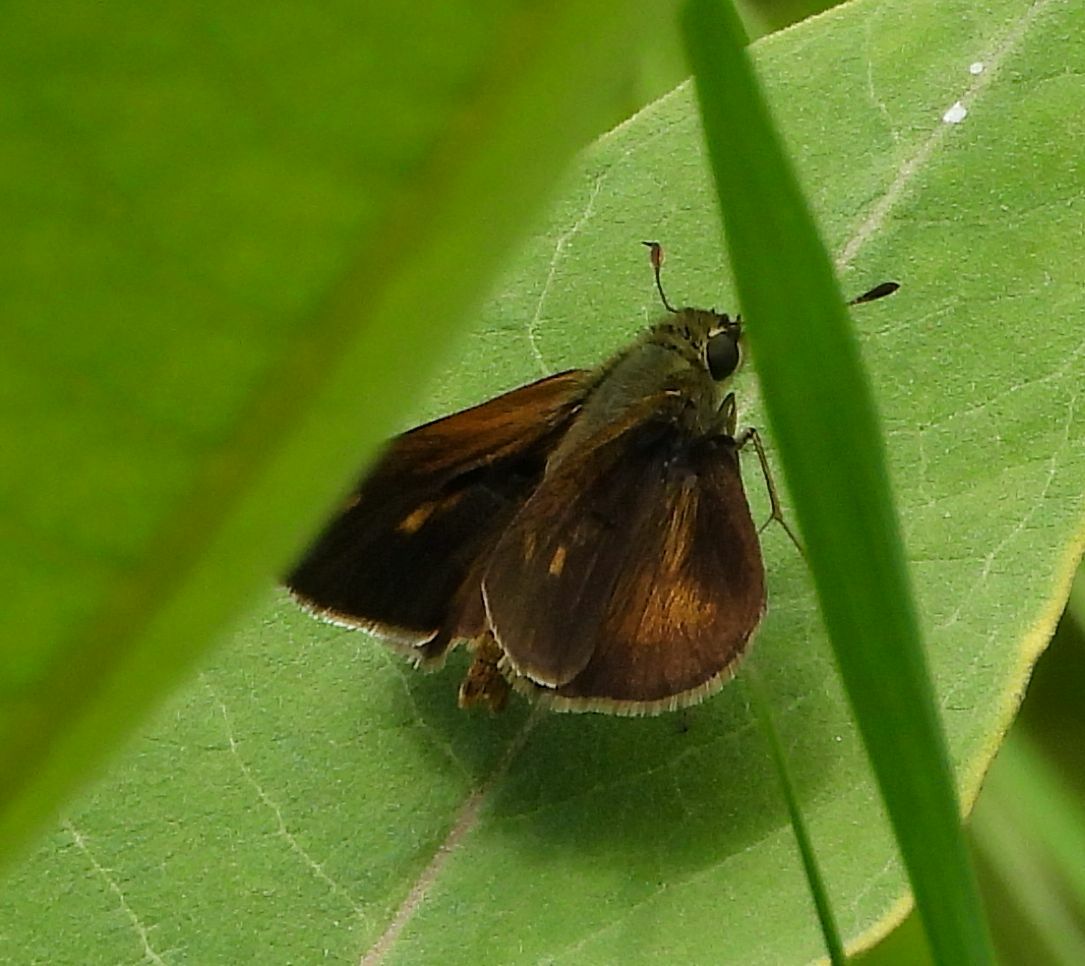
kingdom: Animalia
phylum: Arthropoda
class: Insecta
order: Lepidoptera
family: Hesperiidae
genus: Polites
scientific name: Polites egeremet
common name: Northern broken-dash
